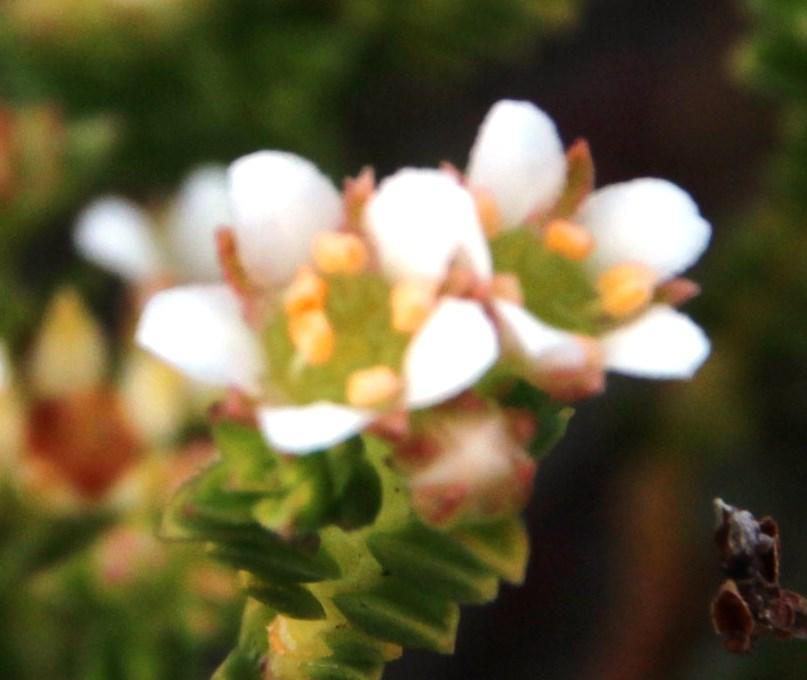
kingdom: Plantae
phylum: Tracheophyta
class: Magnoliopsida
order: Sapindales
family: Rutaceae
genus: Diosma
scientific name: Diosma oppositifolia
